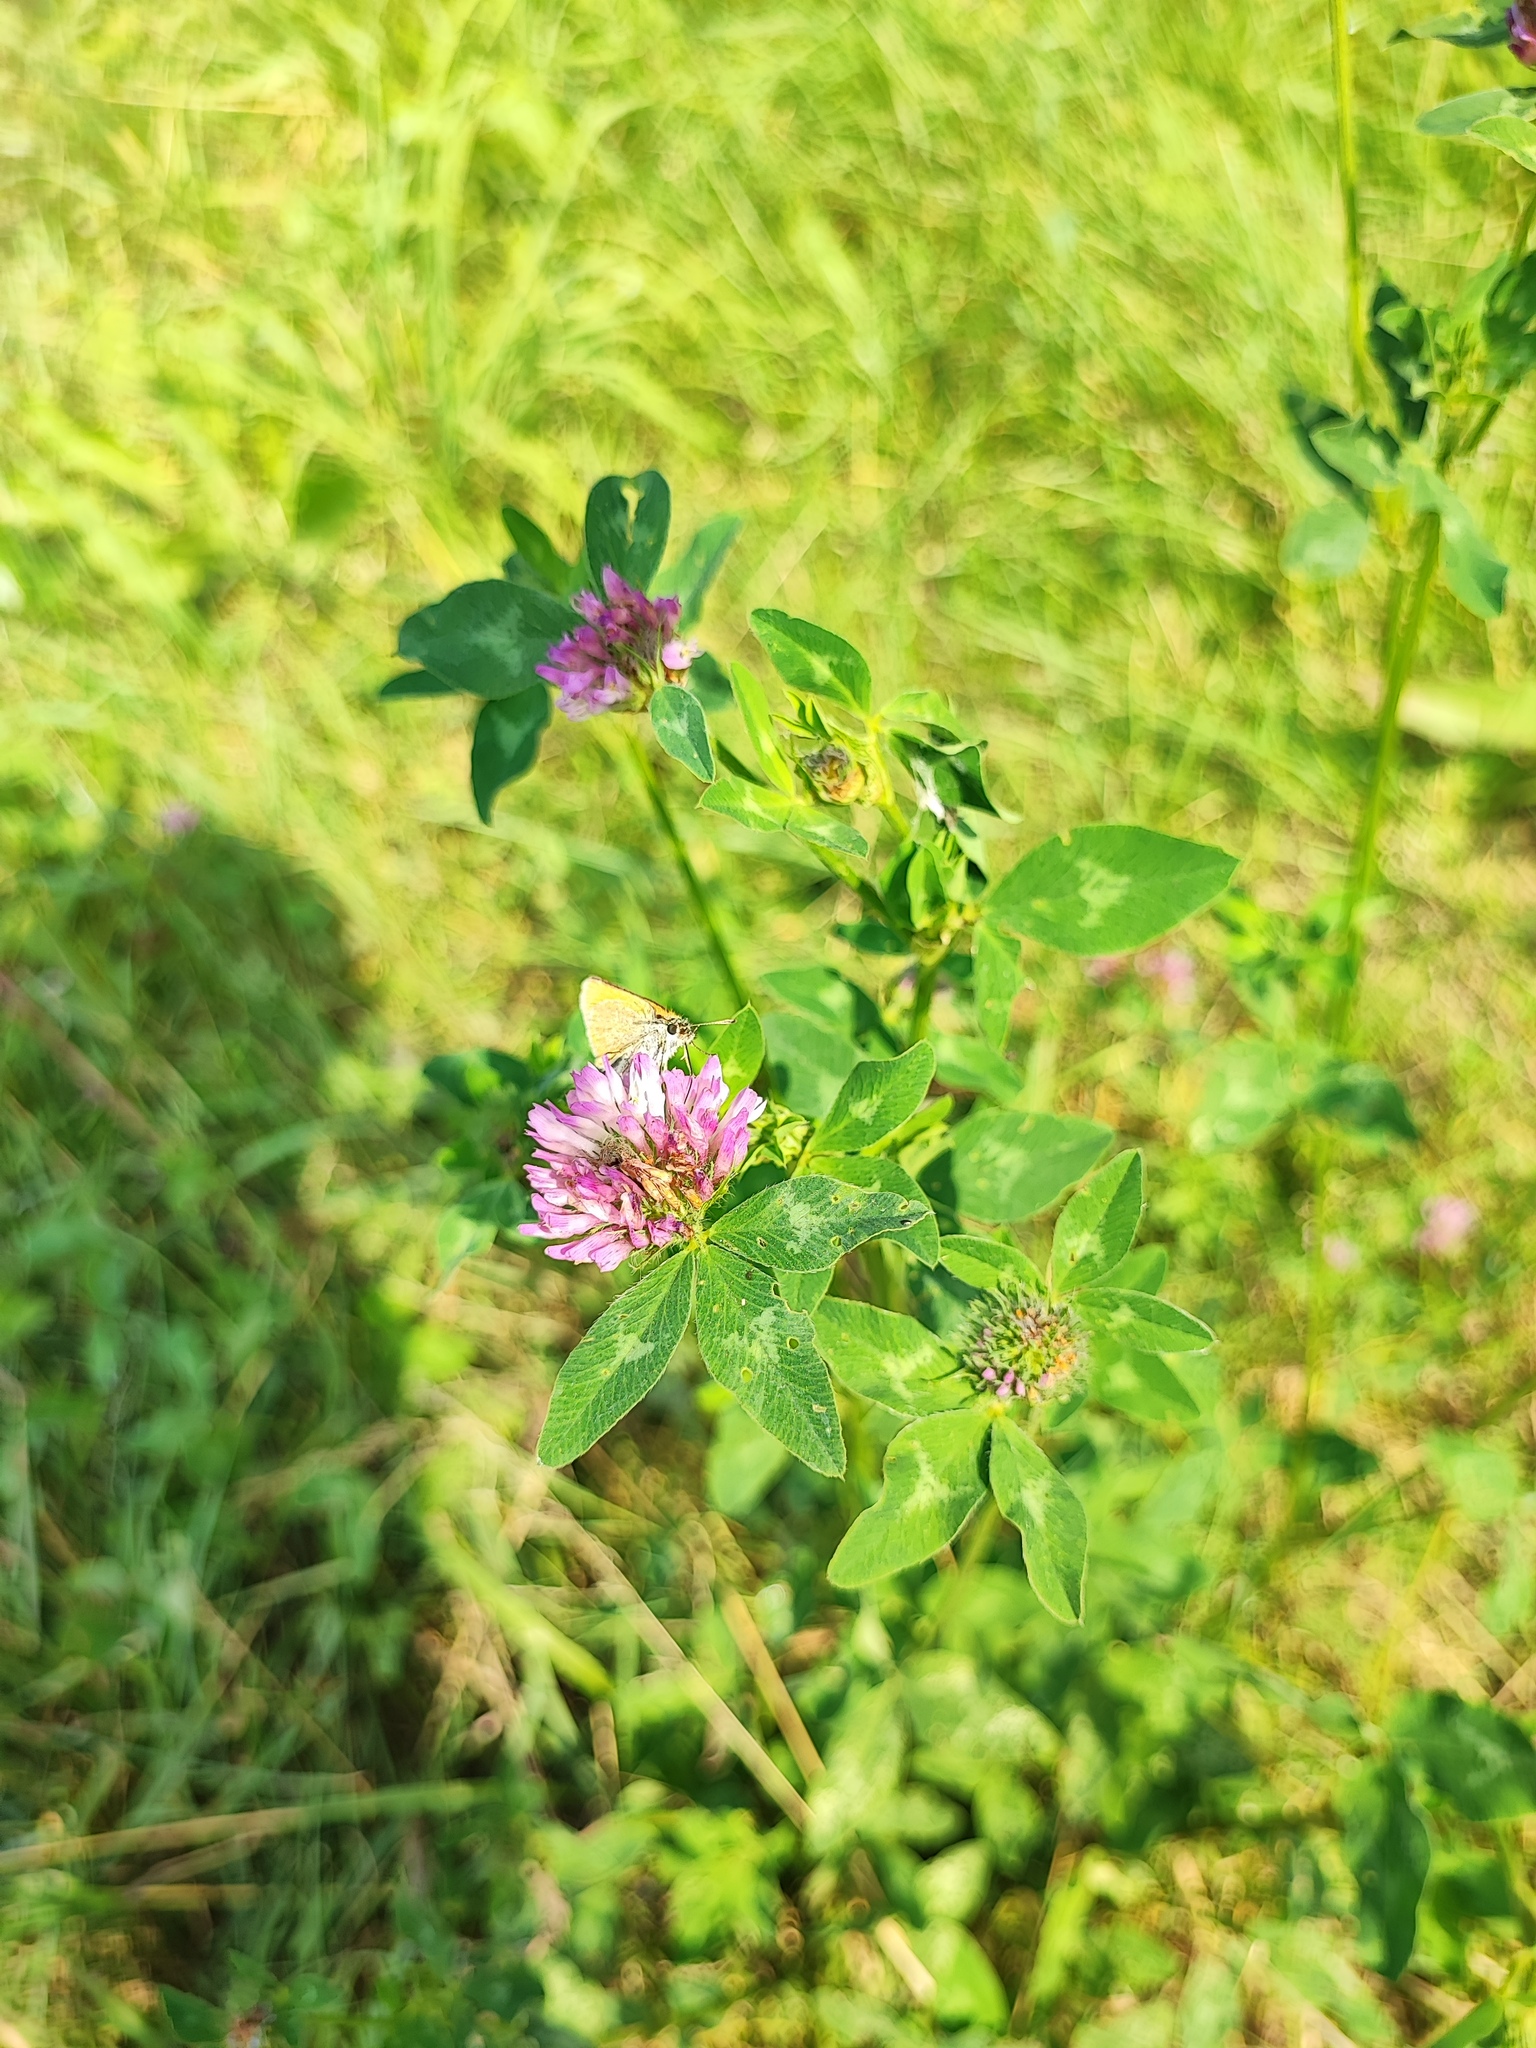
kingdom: Plantae
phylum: Tracheophyta
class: Magnoliopsida
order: Fabales
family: Fabaceae
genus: Trifolium
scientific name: Trifolium pratense
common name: Red clover
